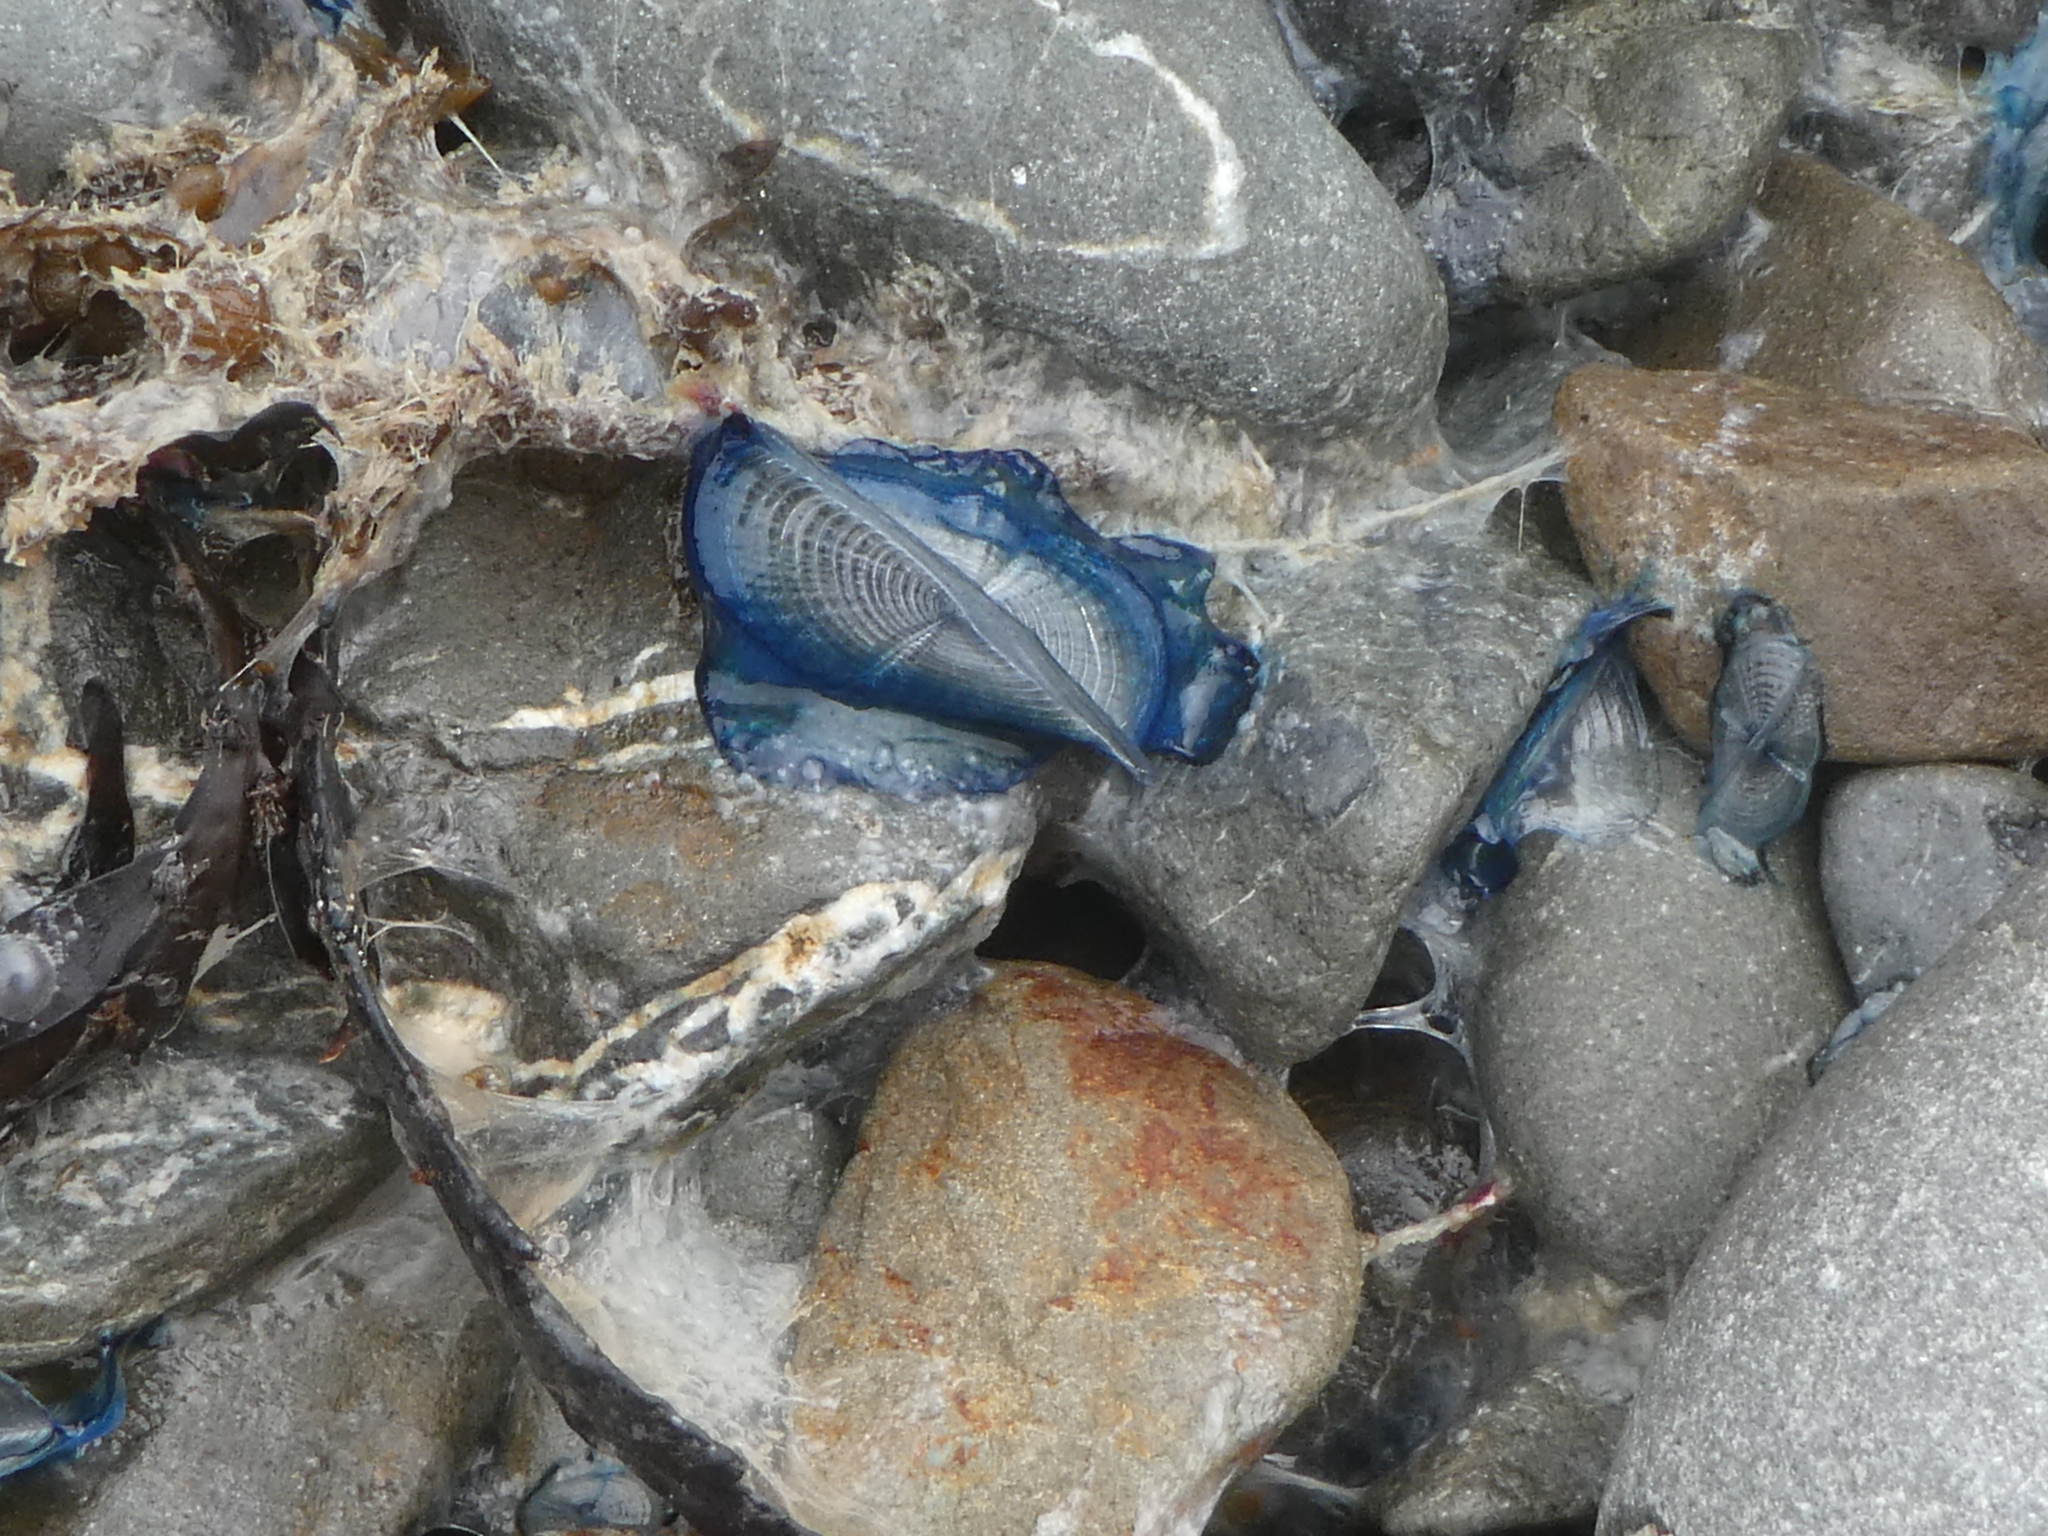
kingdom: Animalia
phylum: Cnidaria
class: Hydrozoa
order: Anthoathecata
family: Porpitidae
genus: Velella
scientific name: Velella velella
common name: By-the-wind-sailor
